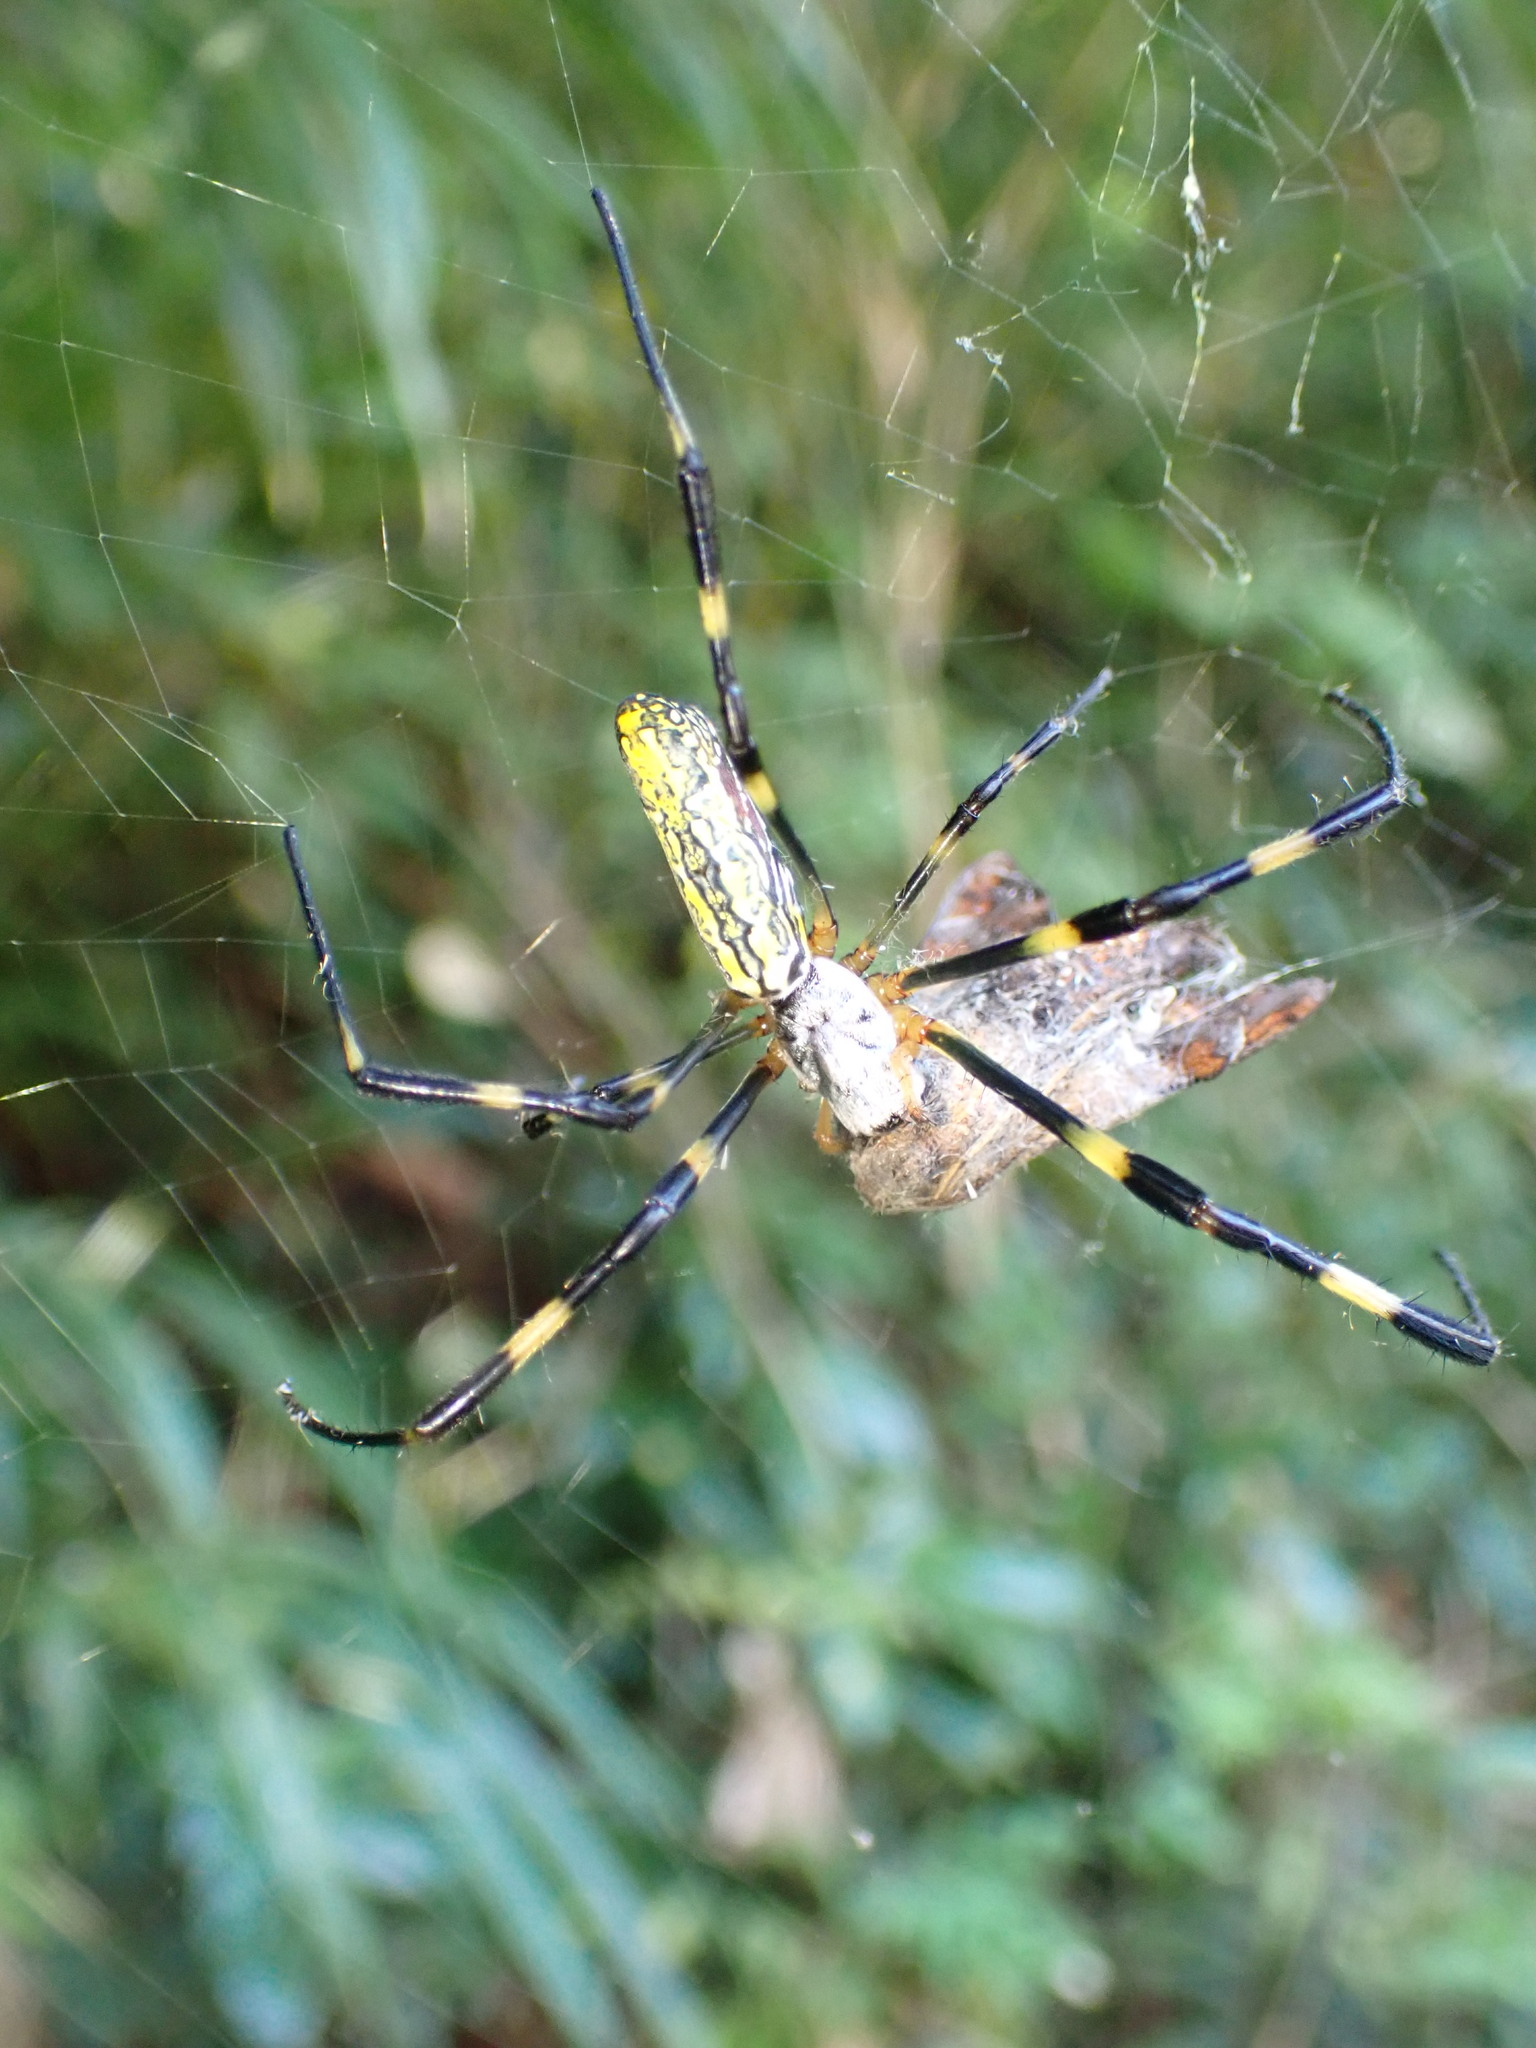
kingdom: Animalia
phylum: Arthropoda
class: Arachnida
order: Araneae
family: Araneidae
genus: Trichonephila
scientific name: Trichonephila clavata
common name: Jorō spider
